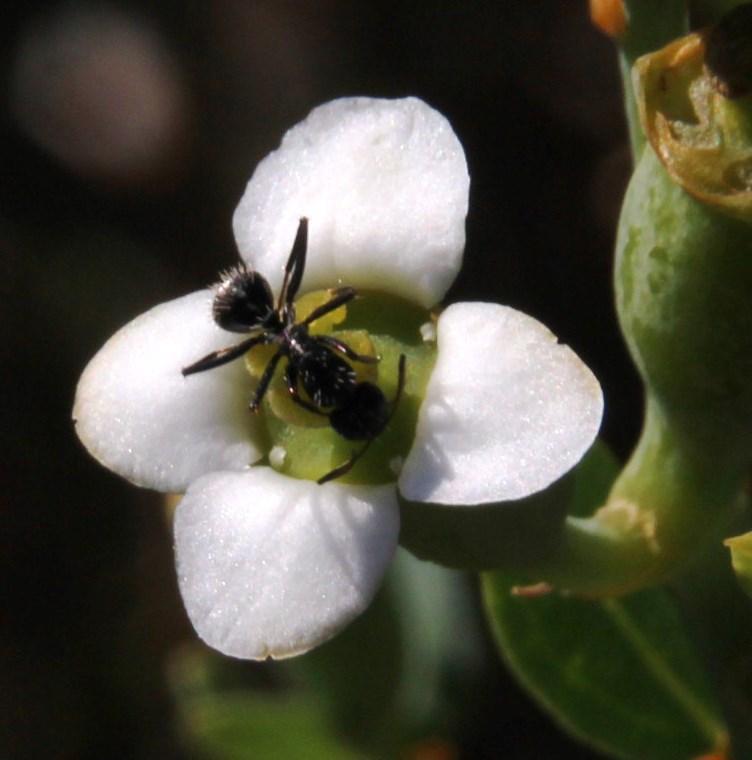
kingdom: Animalia
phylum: Arthropoda
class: Insecta
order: Hymenoptera
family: Formicidae
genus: Camponotus
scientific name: Camponotus niveosetosus
